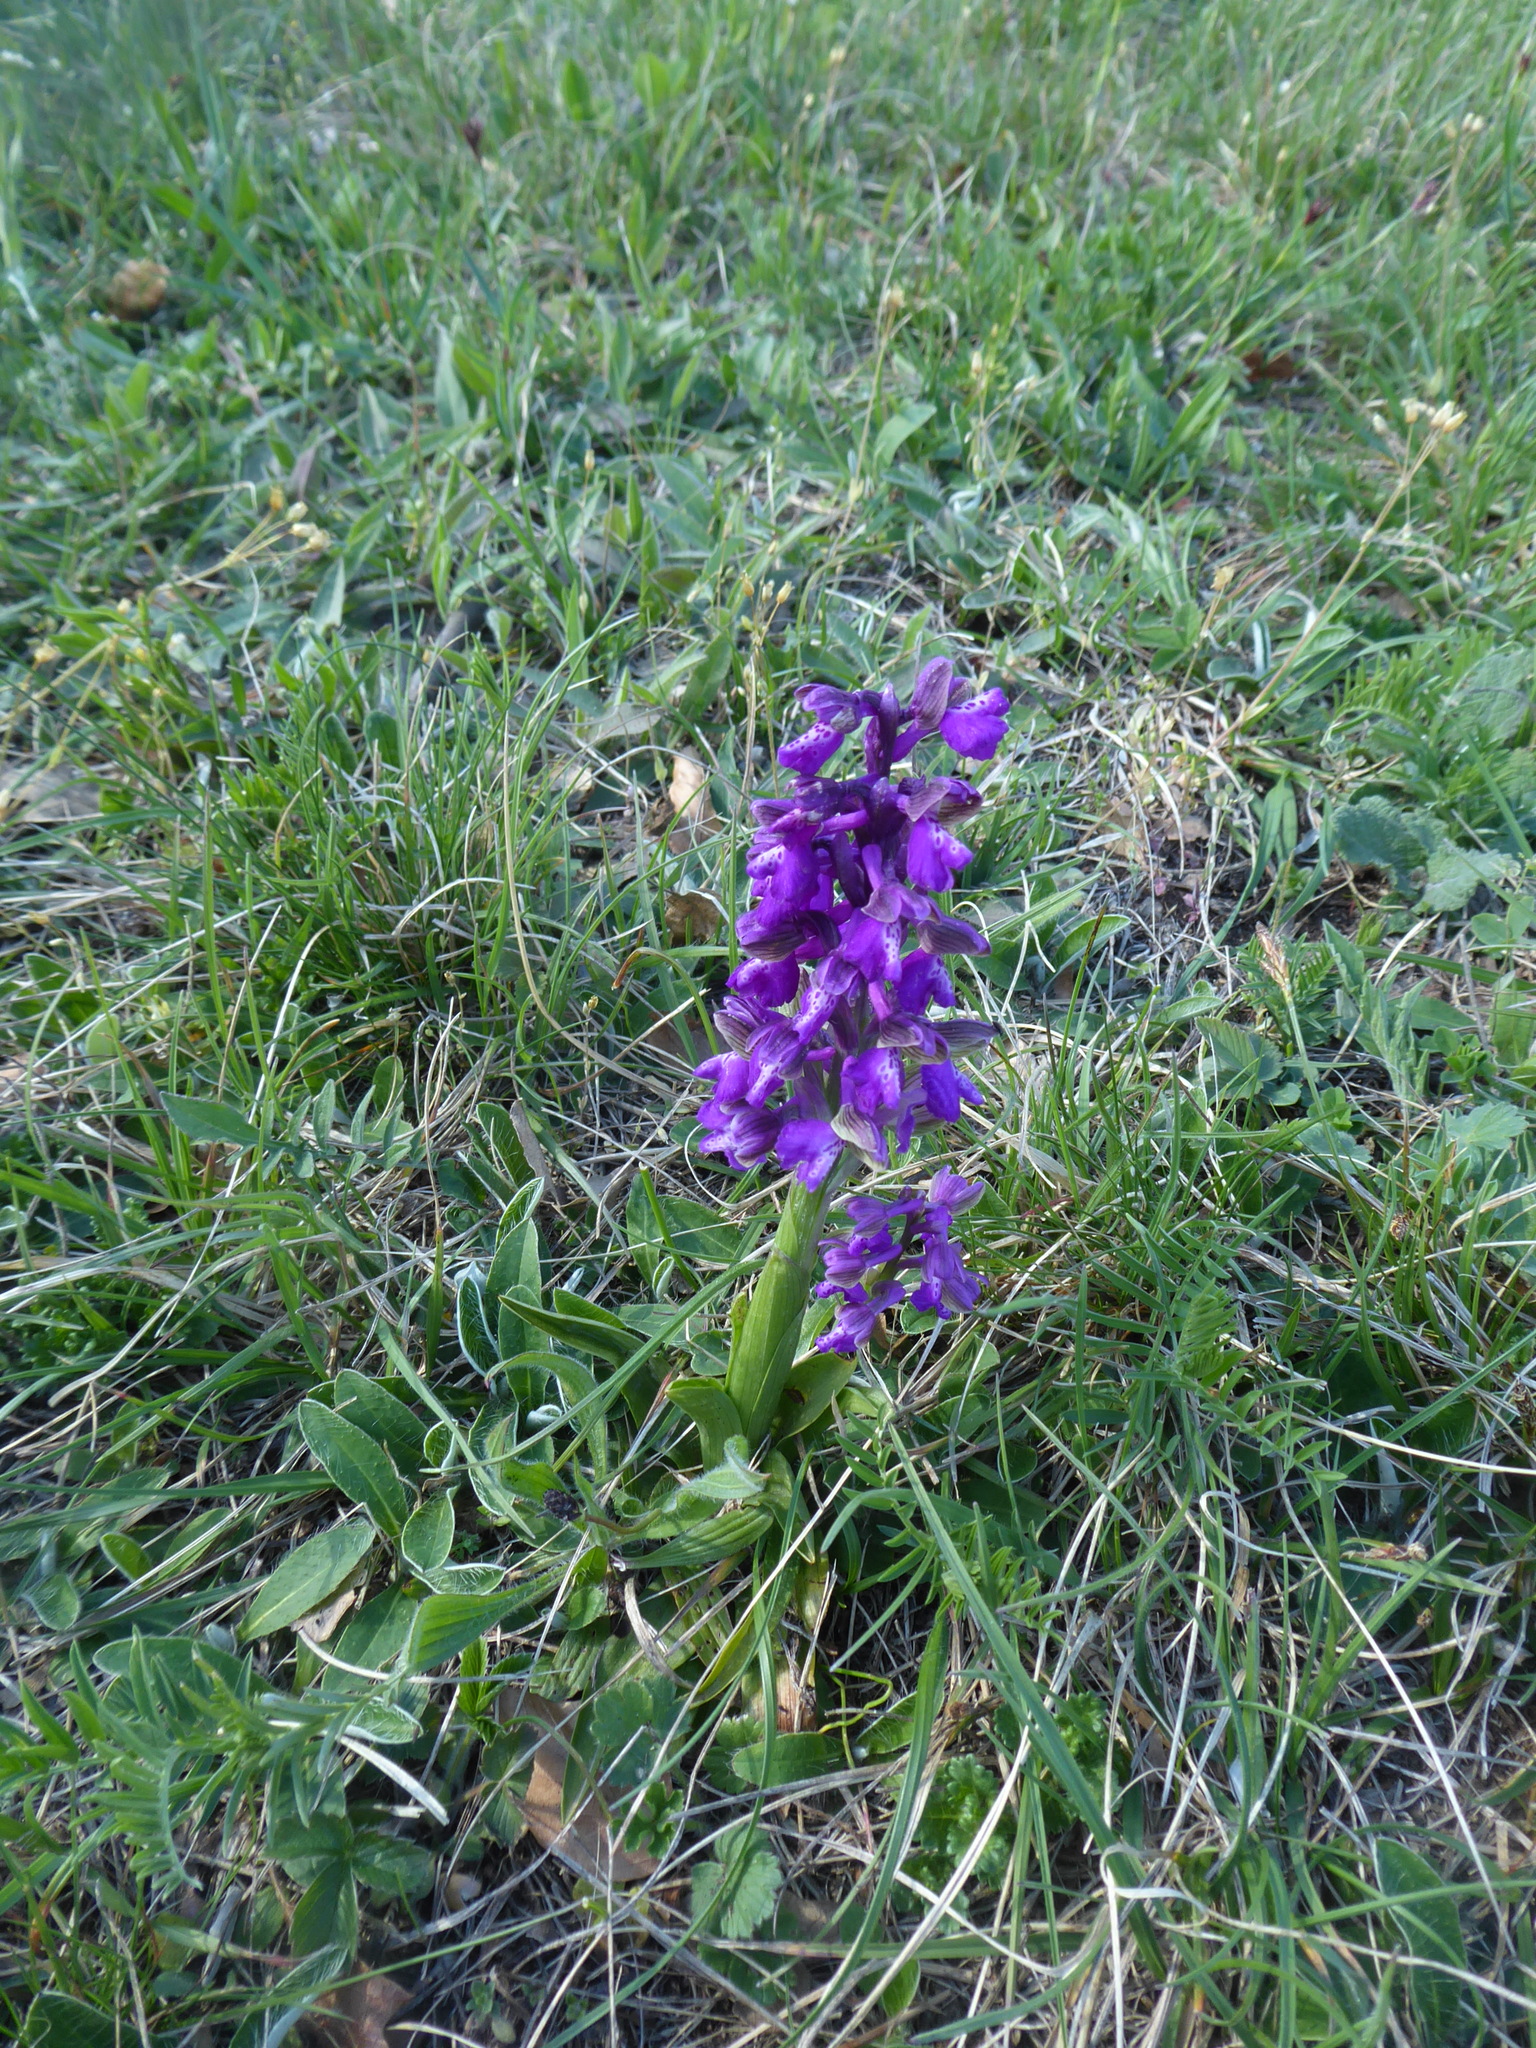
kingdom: Plantae
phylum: Tracheophyta
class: Liliopsida
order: Asparagales
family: Orchidaceae
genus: Anacamptis
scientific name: Anacamptis morio
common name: Green-winged orchid
